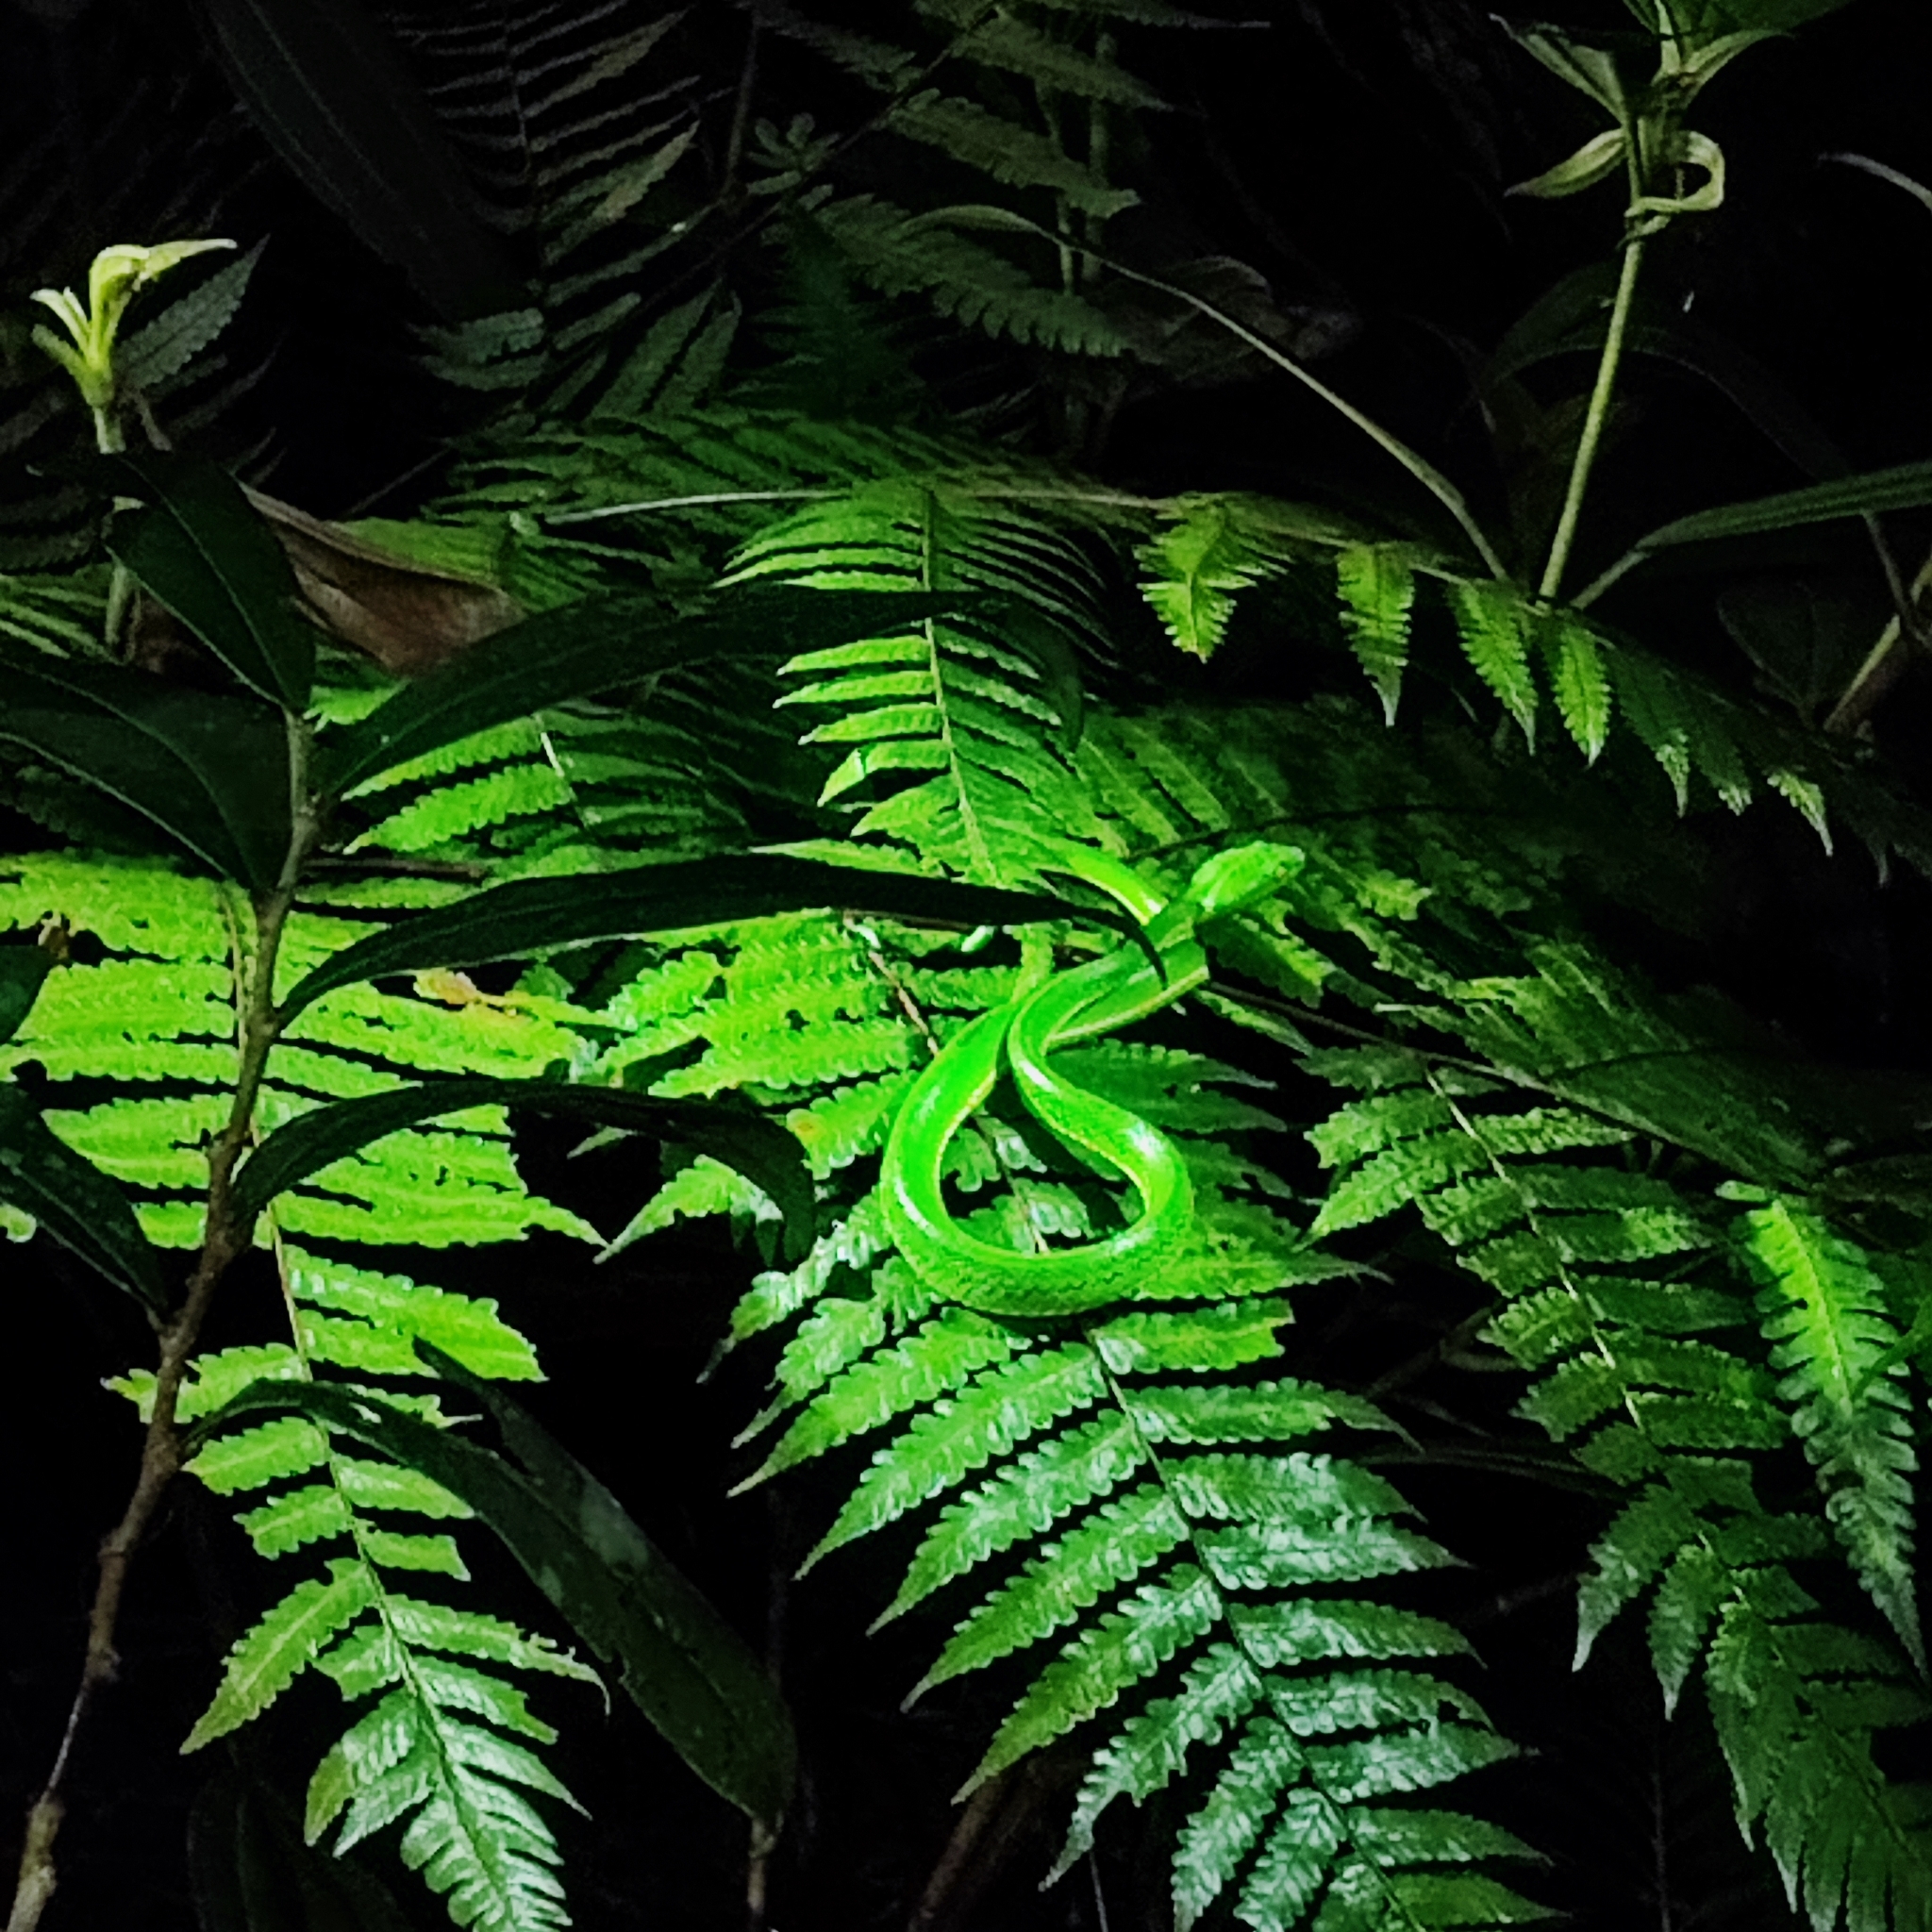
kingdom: Animalia
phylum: Chordata
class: Squamata
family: Viperidae
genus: Trimeresurus
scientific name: Trimeresurus vogeli
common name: Vogel's pit viper
